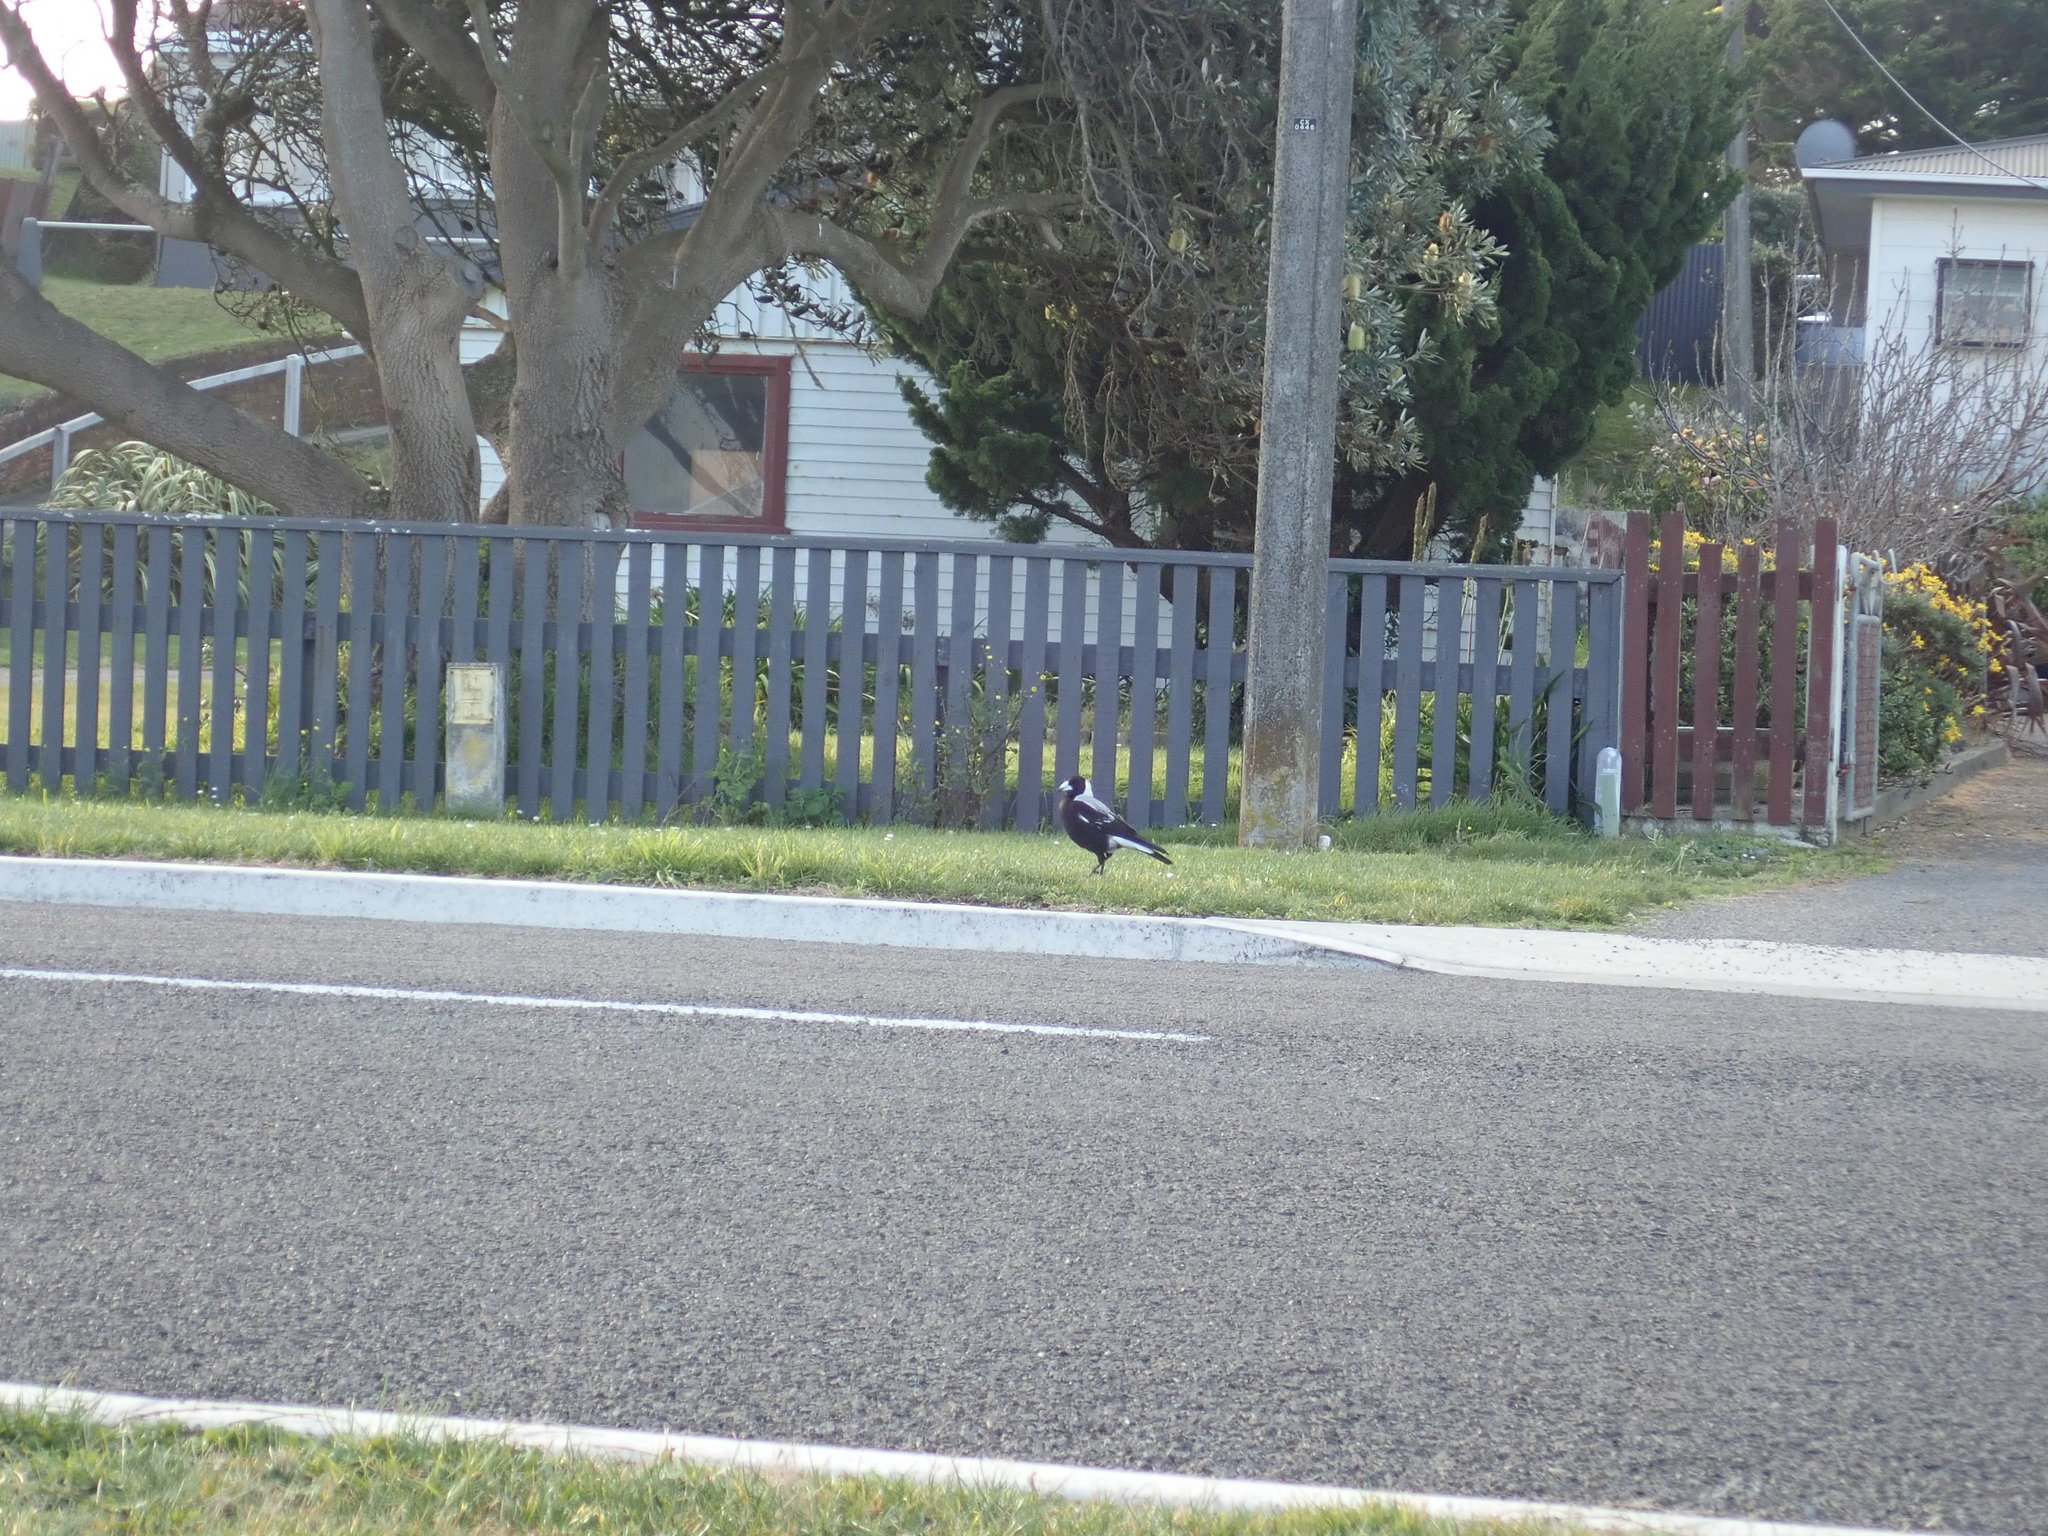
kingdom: Animalia
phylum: Chordata
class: Aves
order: Passeriformes
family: Cracticidae
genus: Gymnorhina
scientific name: Gymnorhina tibicen
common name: Australian magpie
